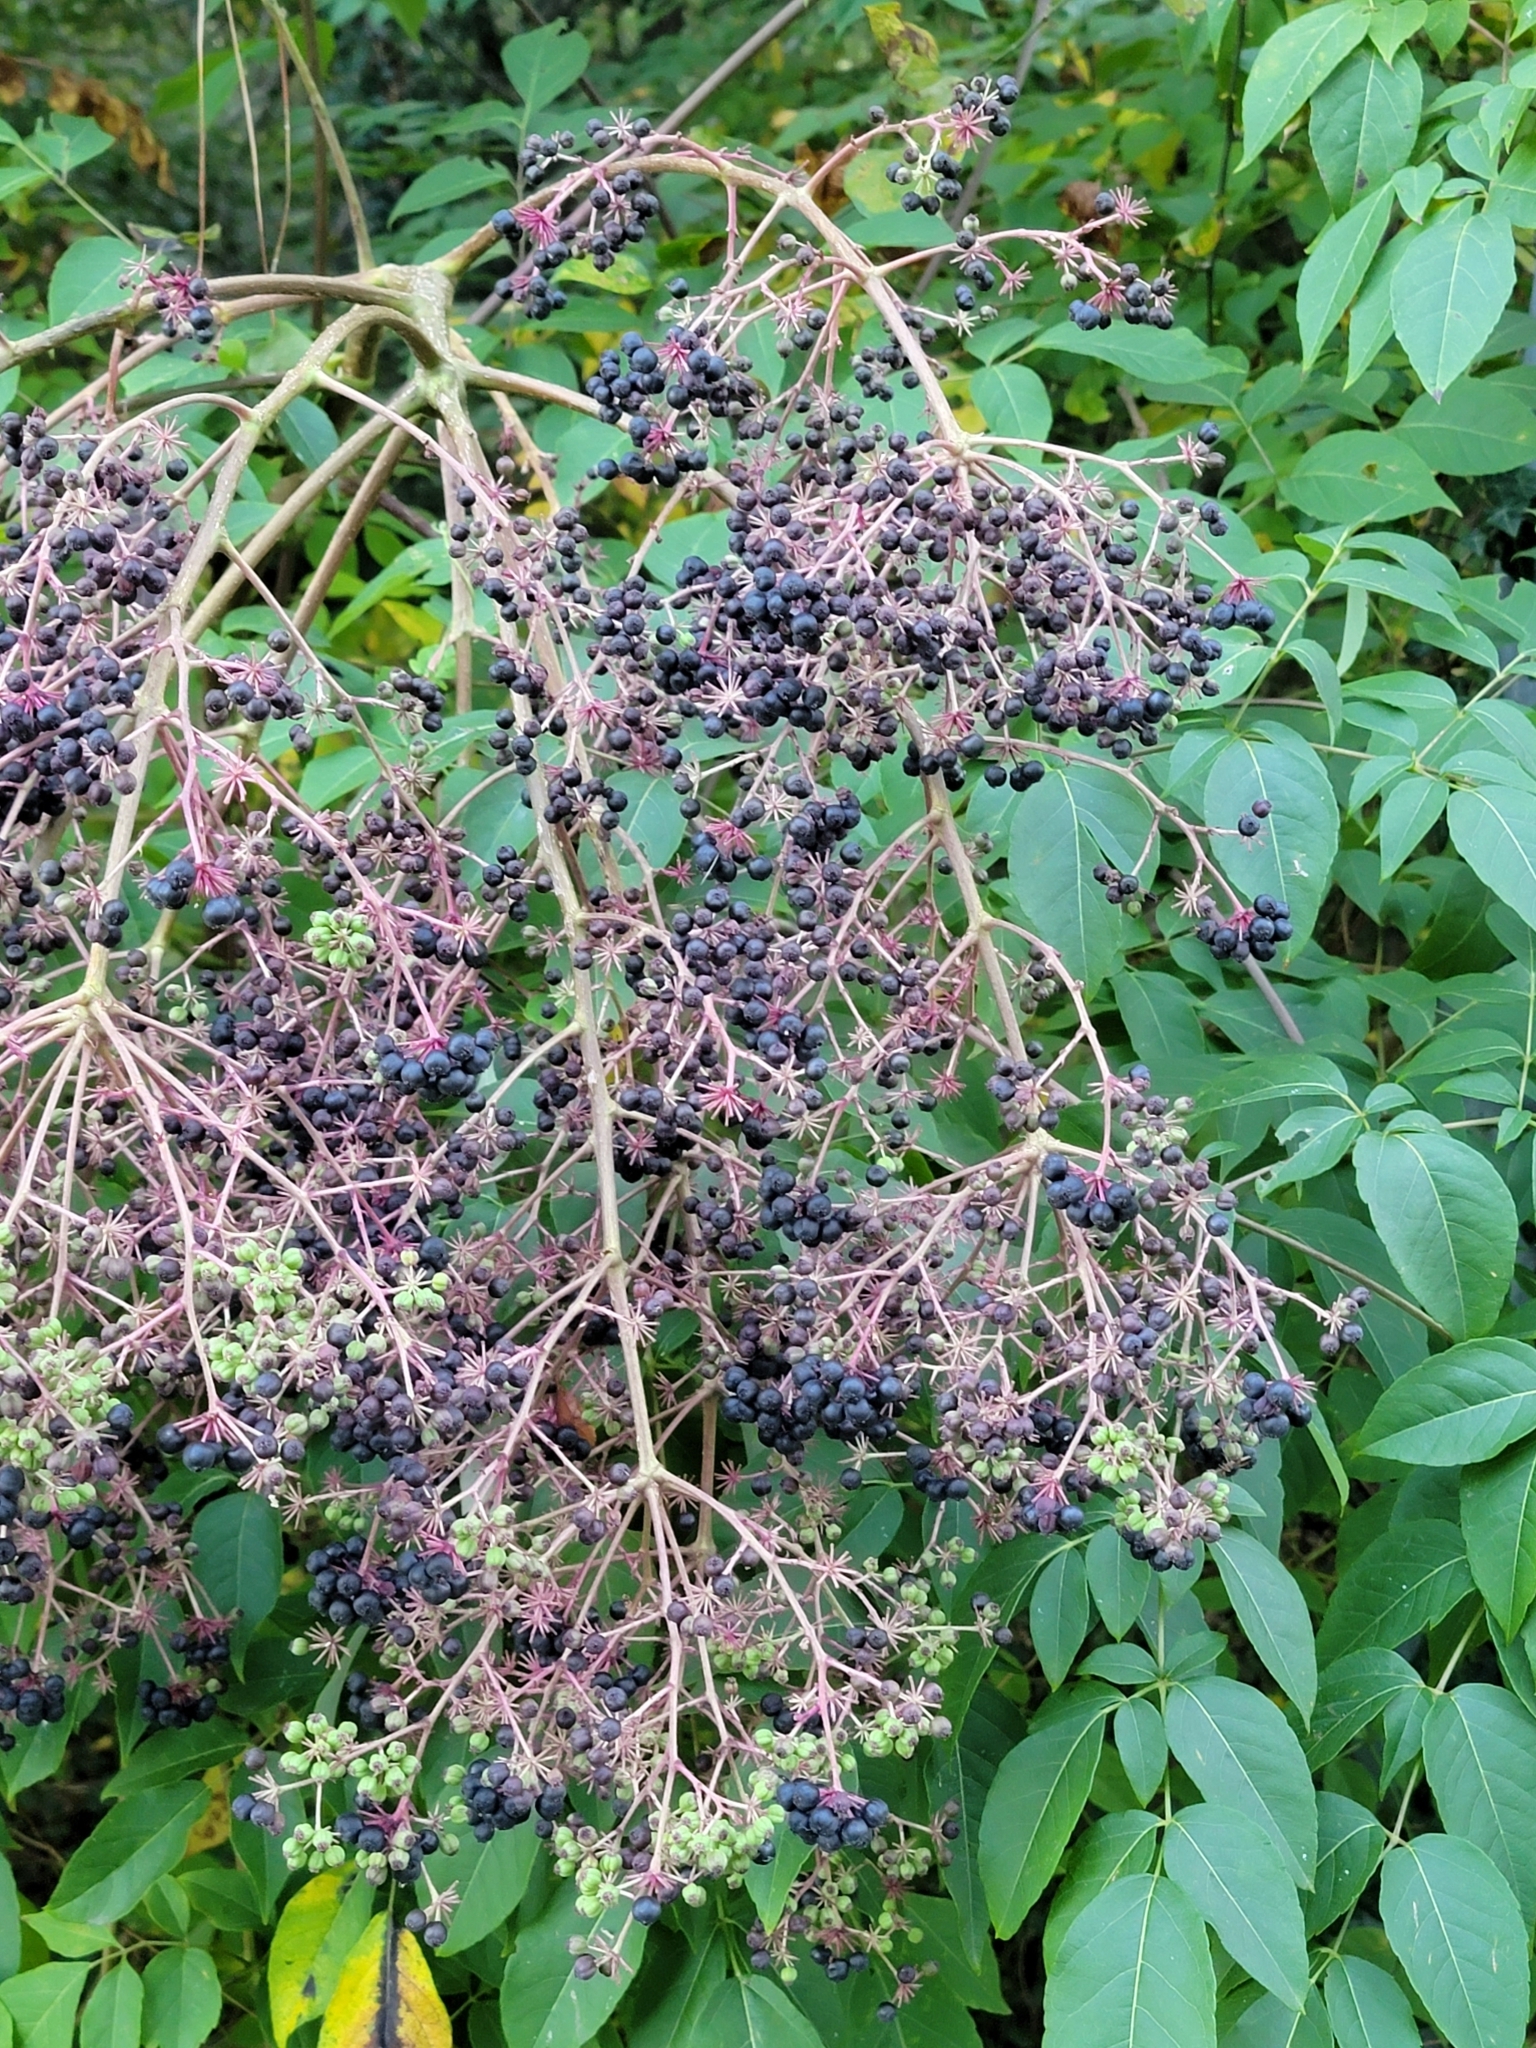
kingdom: Plantae
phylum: Tracheophyta
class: Magnoliopsida
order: Apiales
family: Araliaceae
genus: Aralia
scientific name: Aralia spinosa
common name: Hercules'-club
